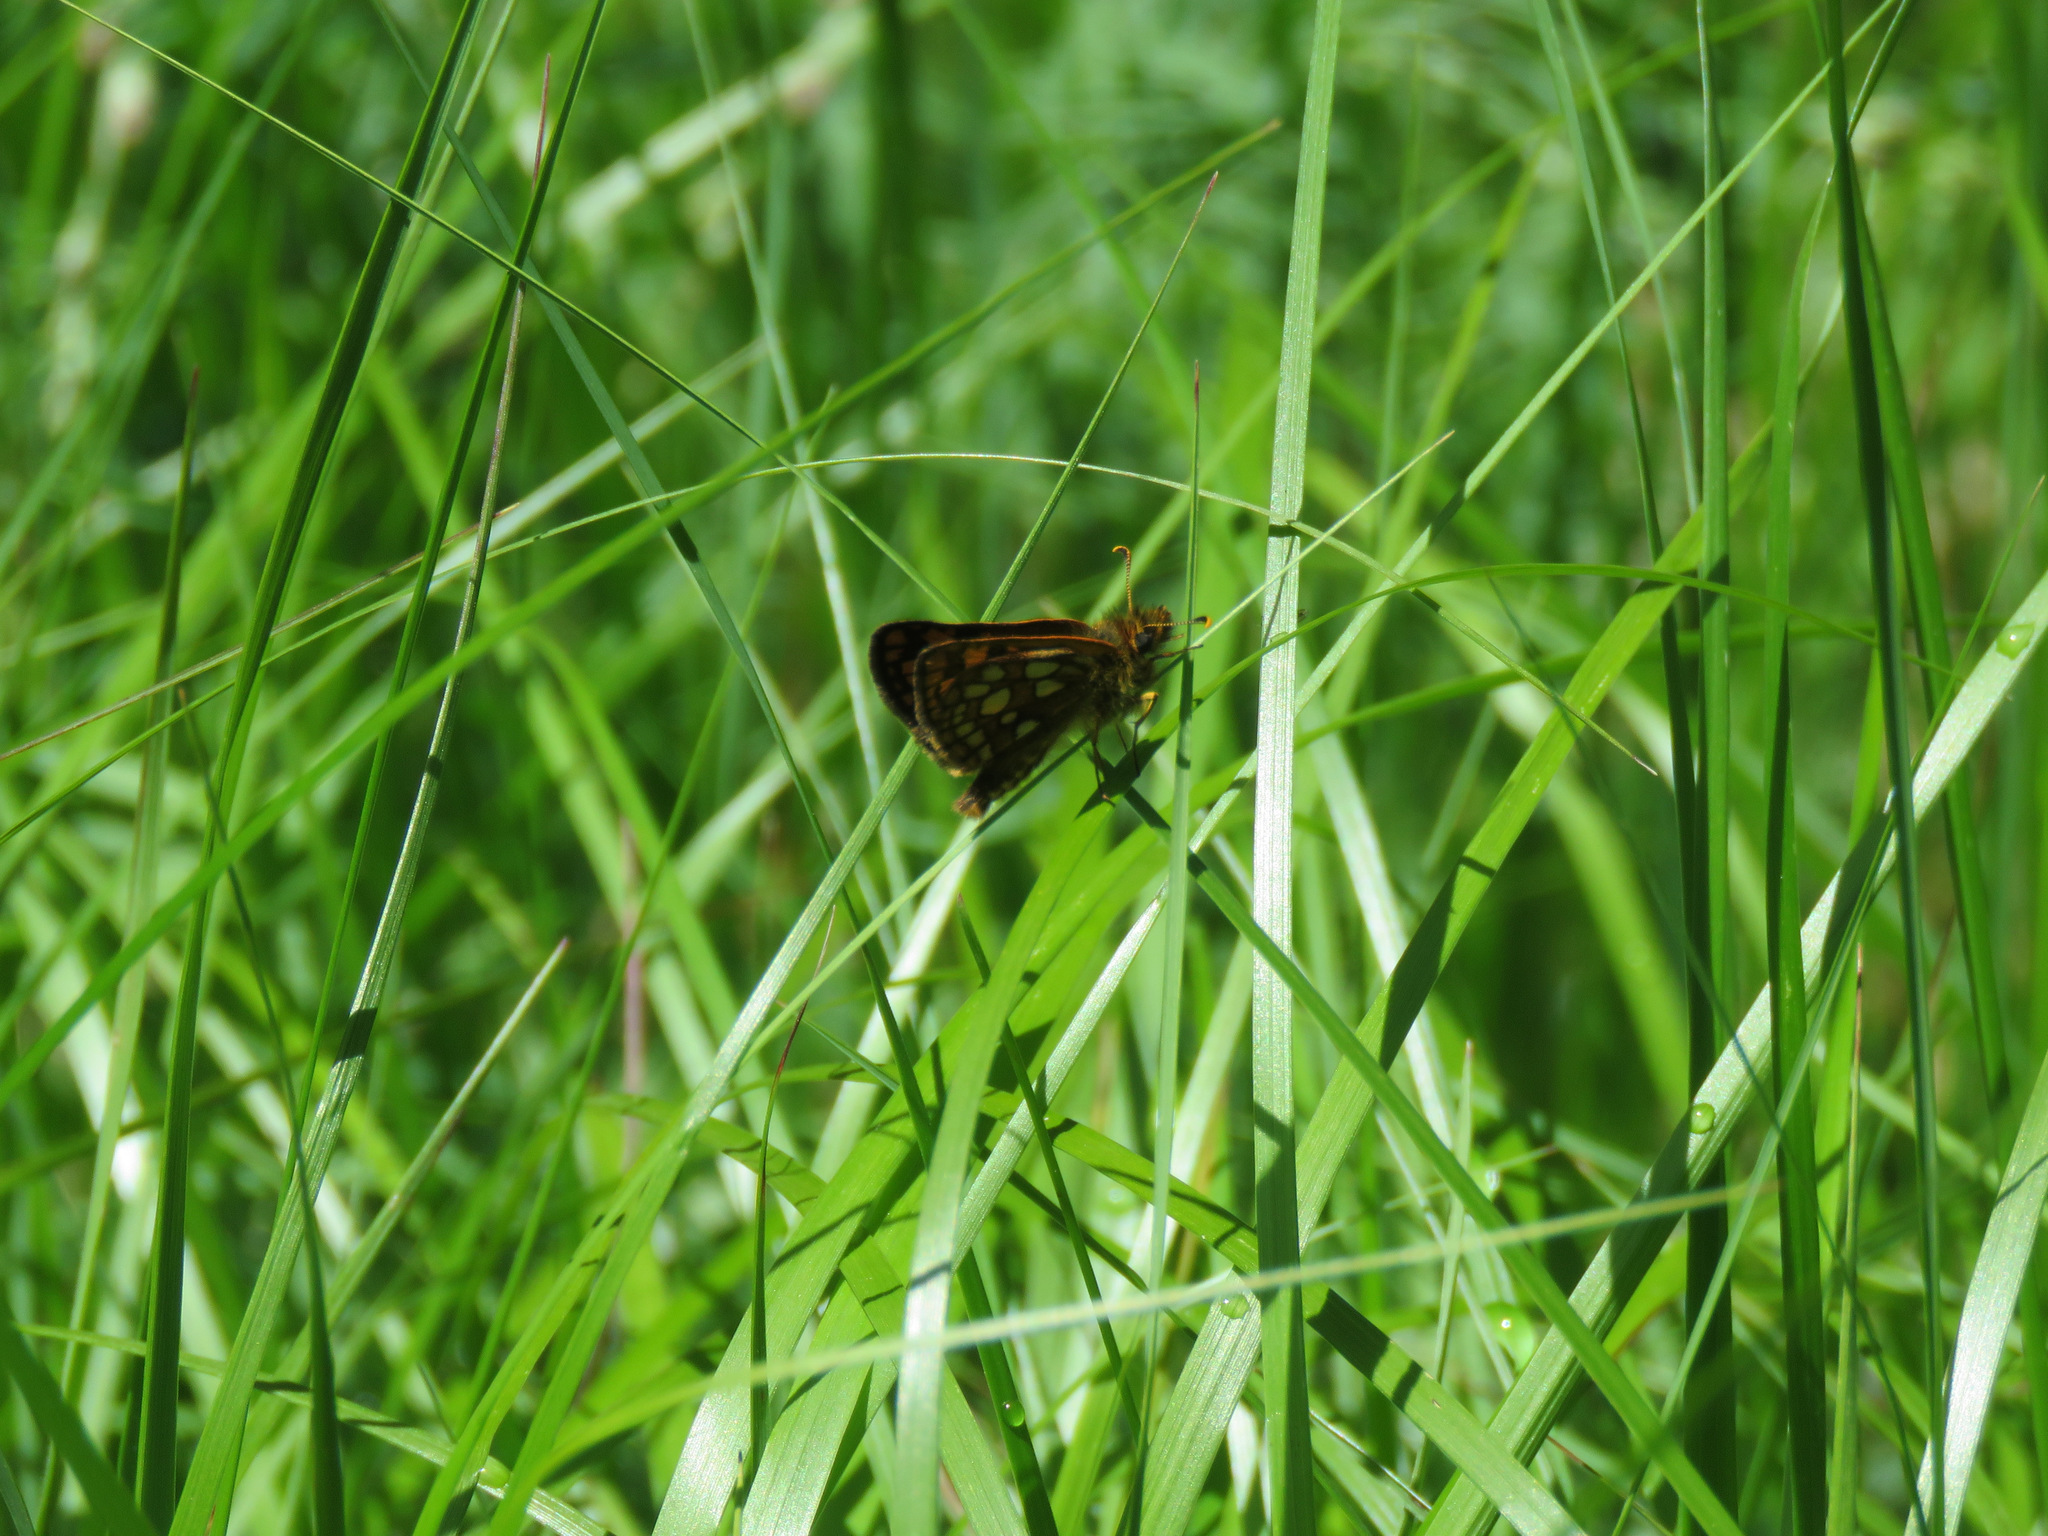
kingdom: Animalia
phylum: Arthropoda
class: Insecta
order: Lepidoptera
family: Hesperiidae
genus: Carterocephalus
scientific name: Carterocephalus skada
